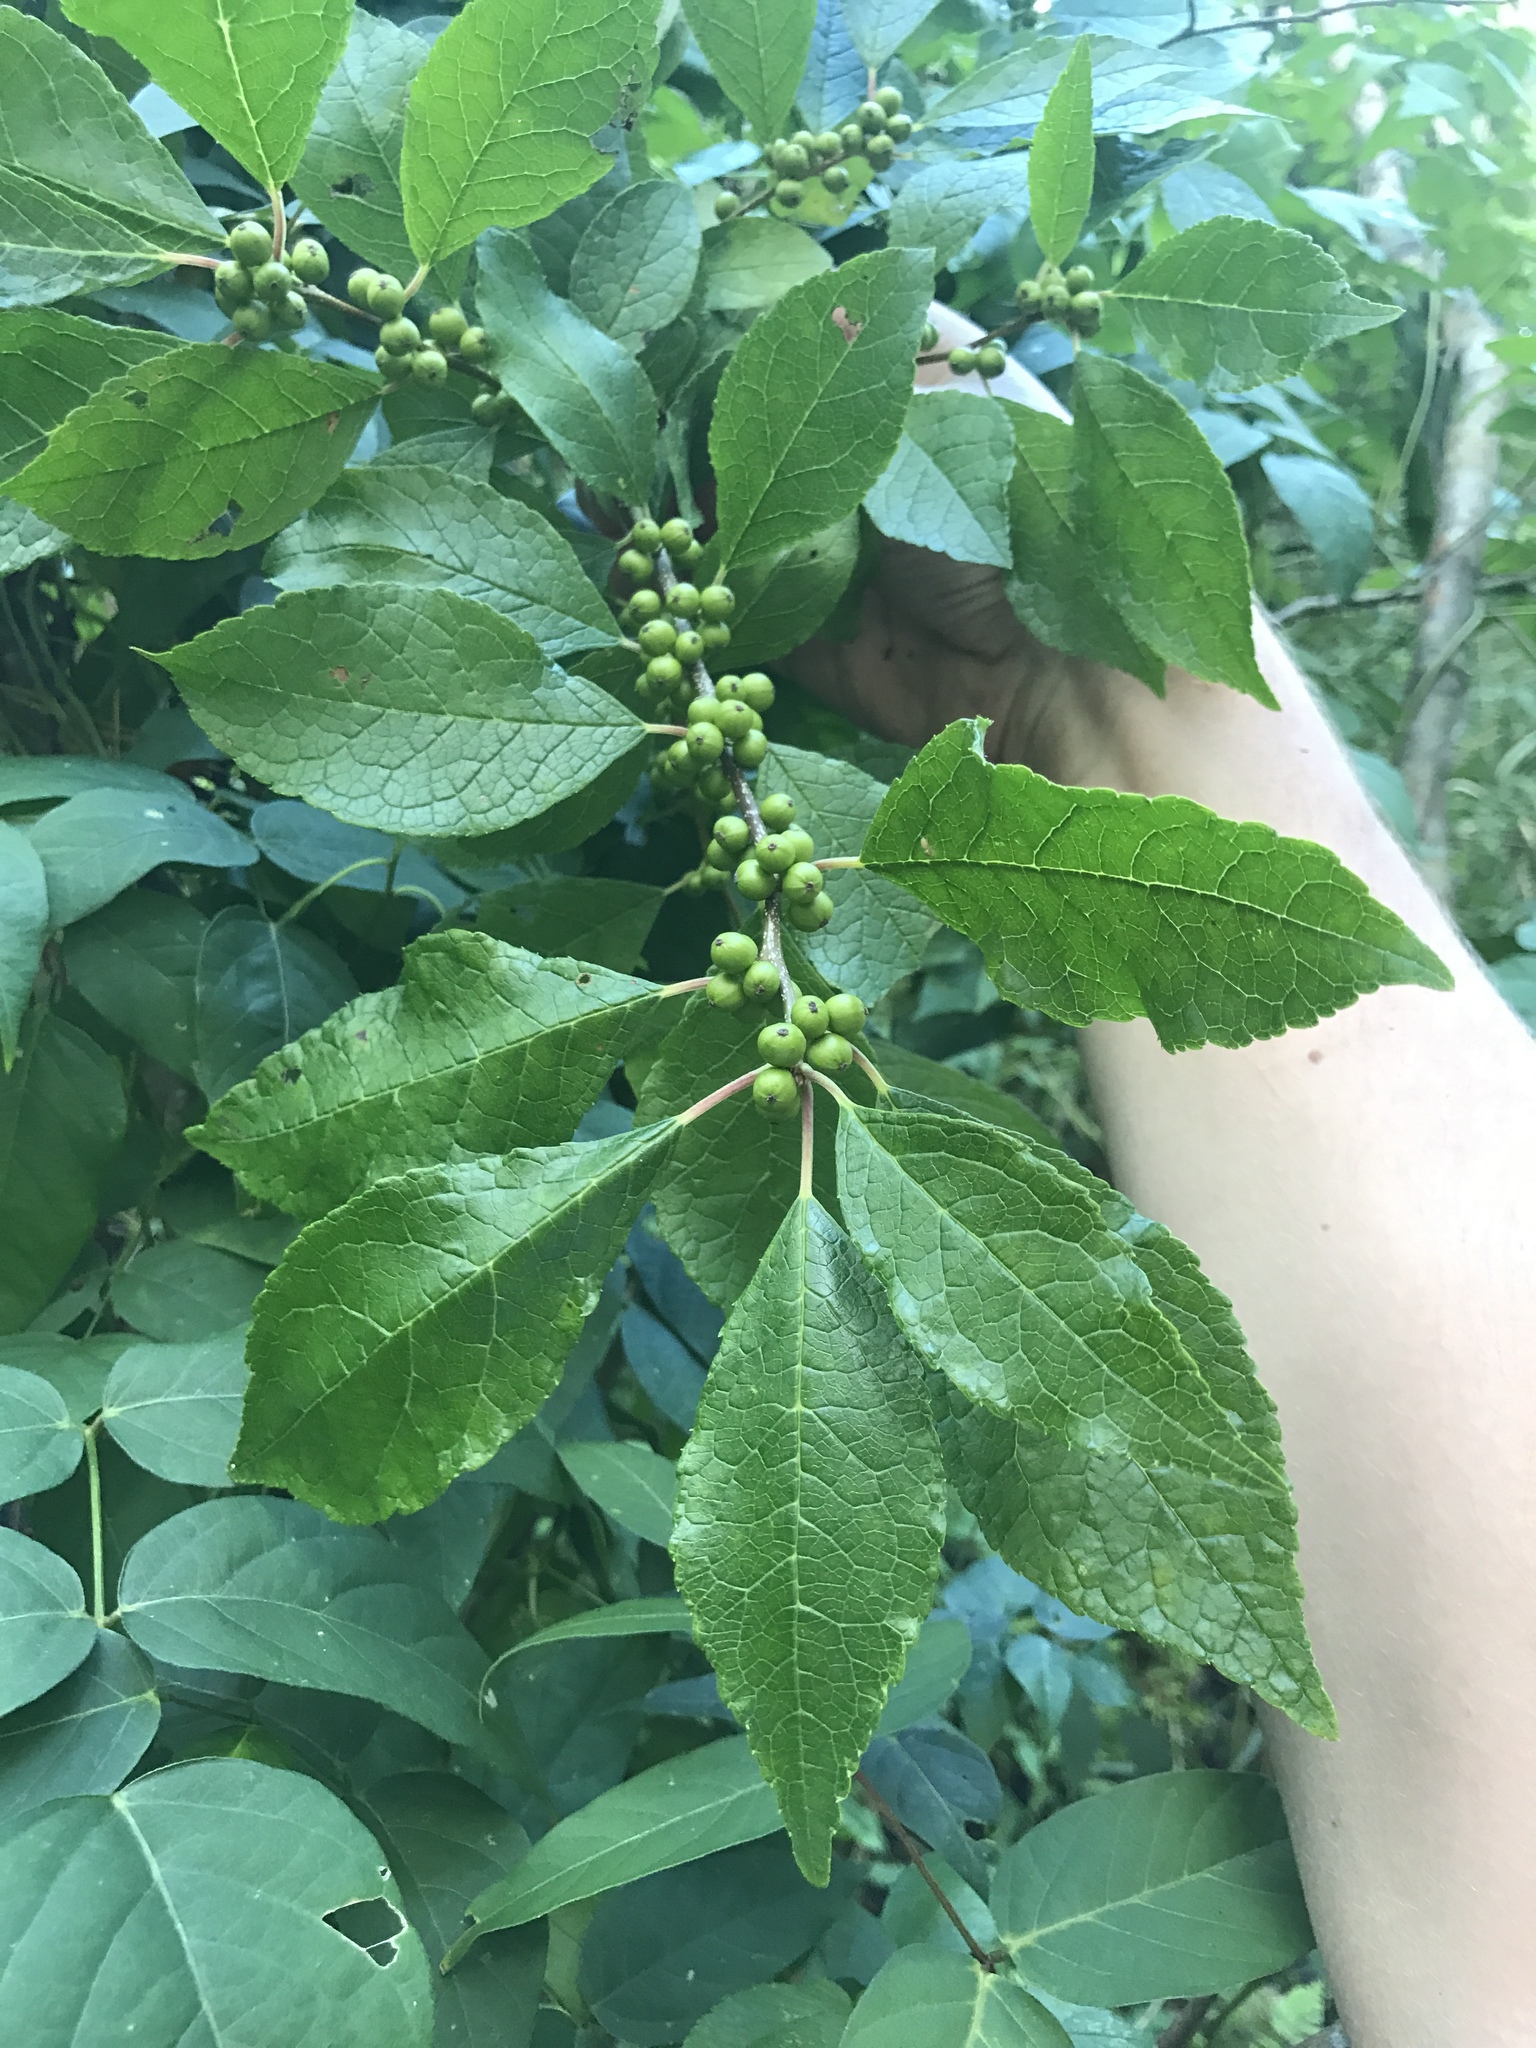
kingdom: Plantae
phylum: Tracheophyta
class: Magnoliopsida
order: Aquifoliales
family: Aquifoliaceae
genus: Ilex
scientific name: Ilex verticillata
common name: Virginia winterberry
